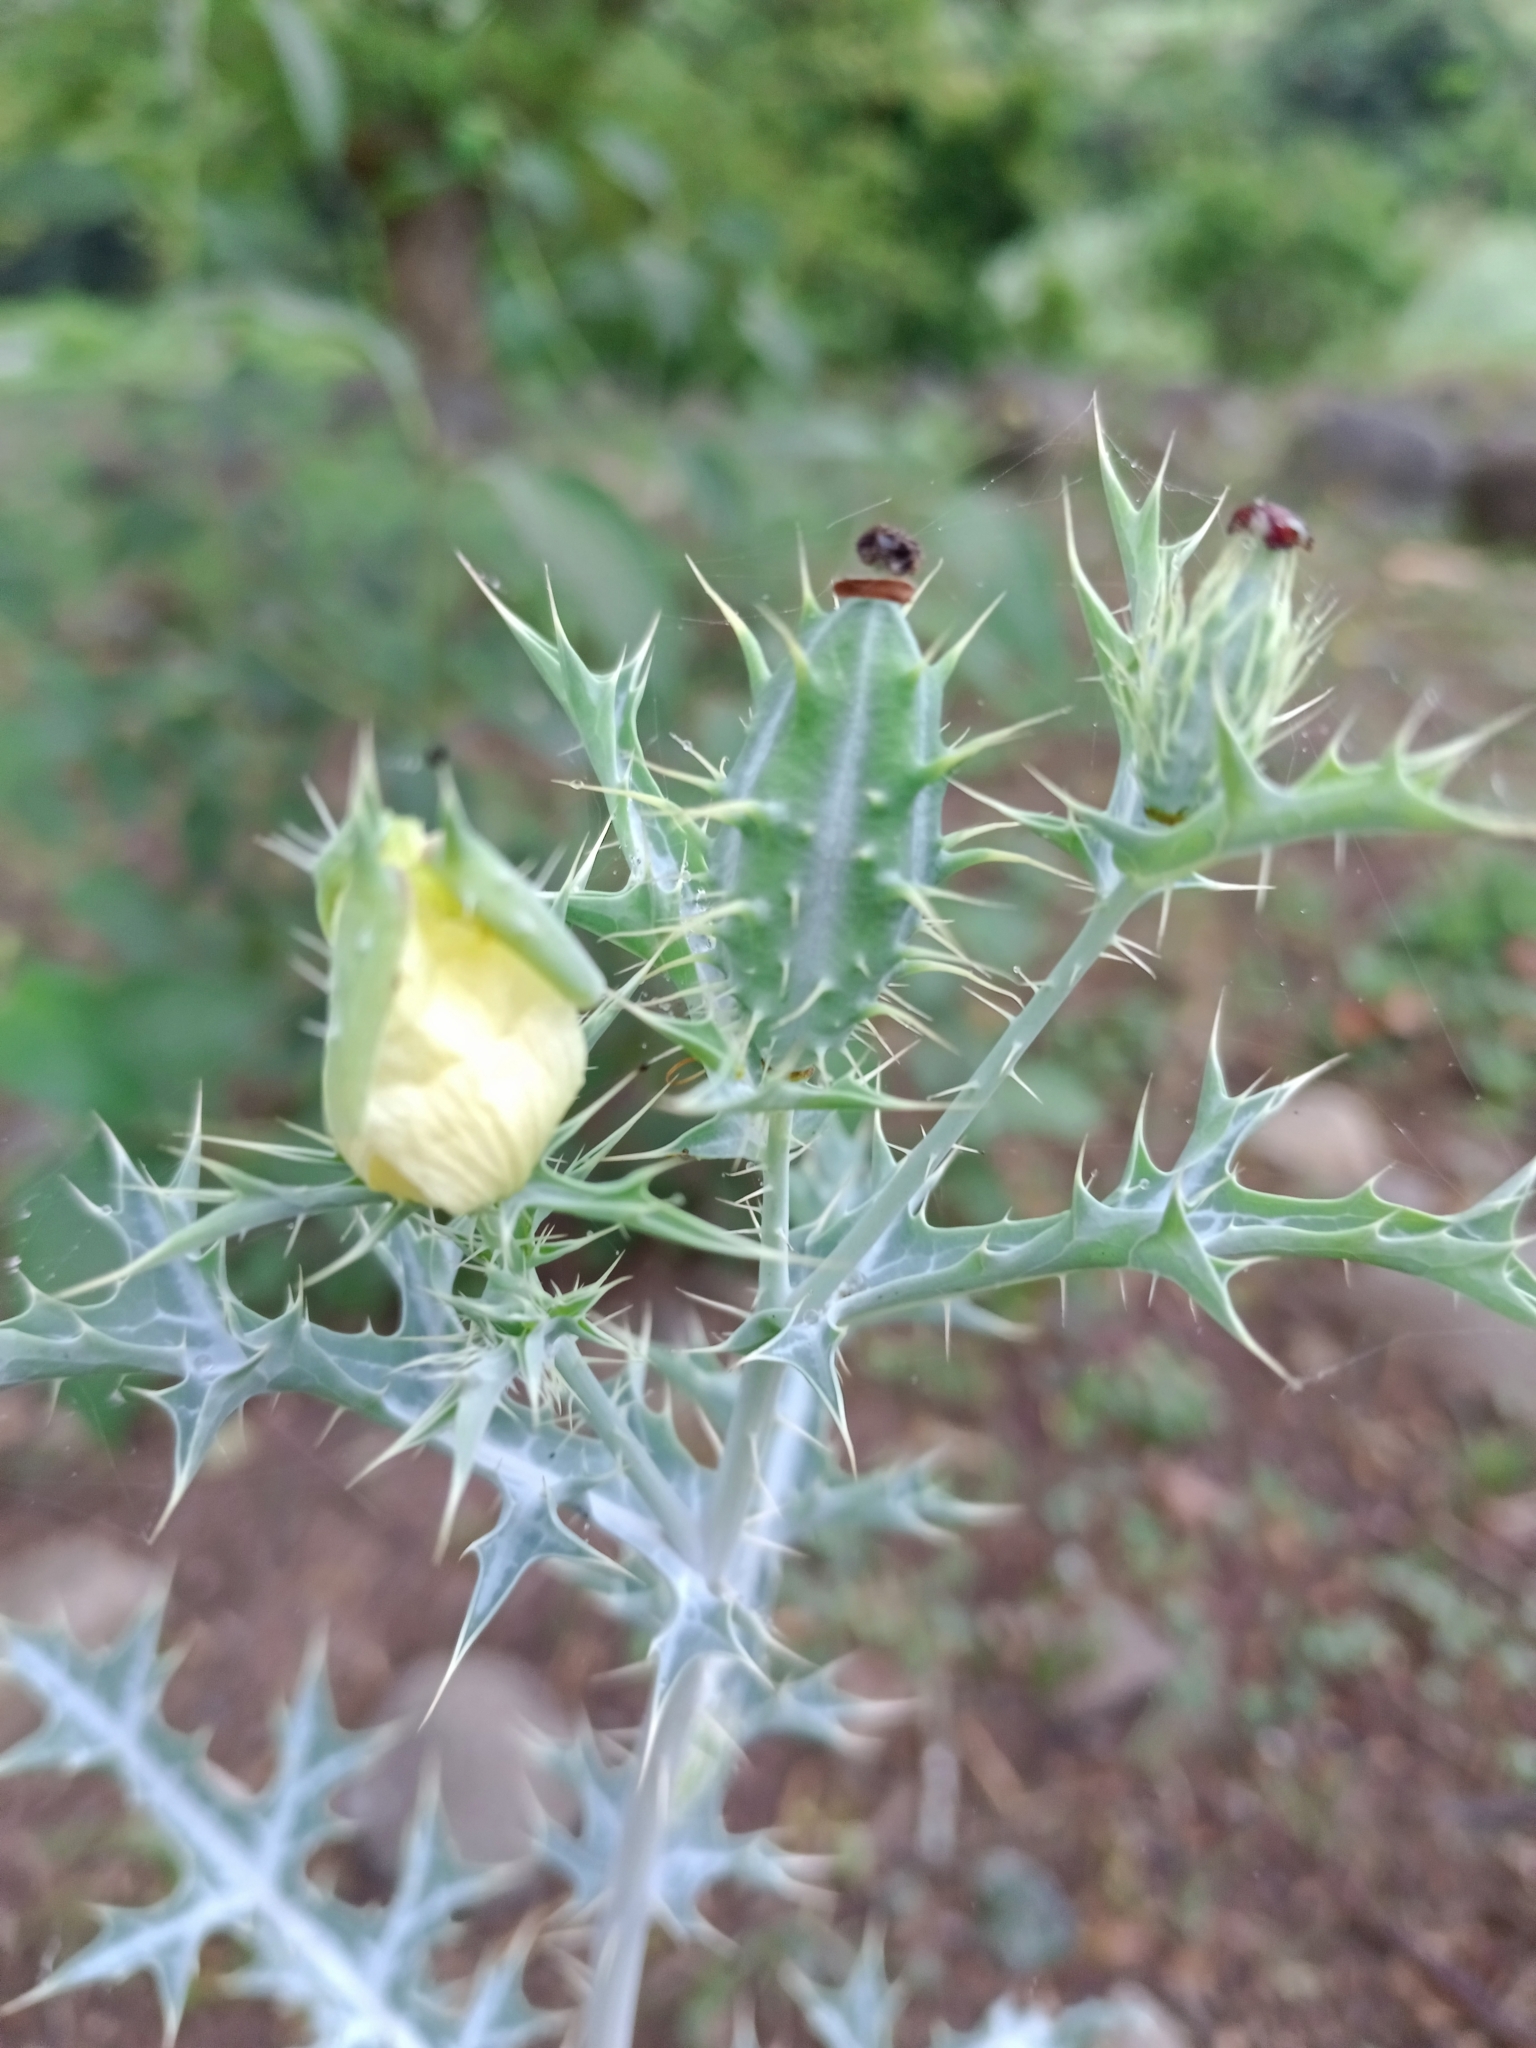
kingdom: Plantae
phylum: Tracheophyta
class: Magnoliopsida
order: Ranunculales
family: Papaveraceae
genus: Argemone
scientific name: Argemone ochroleuca
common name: White-flower mexican-poppy
